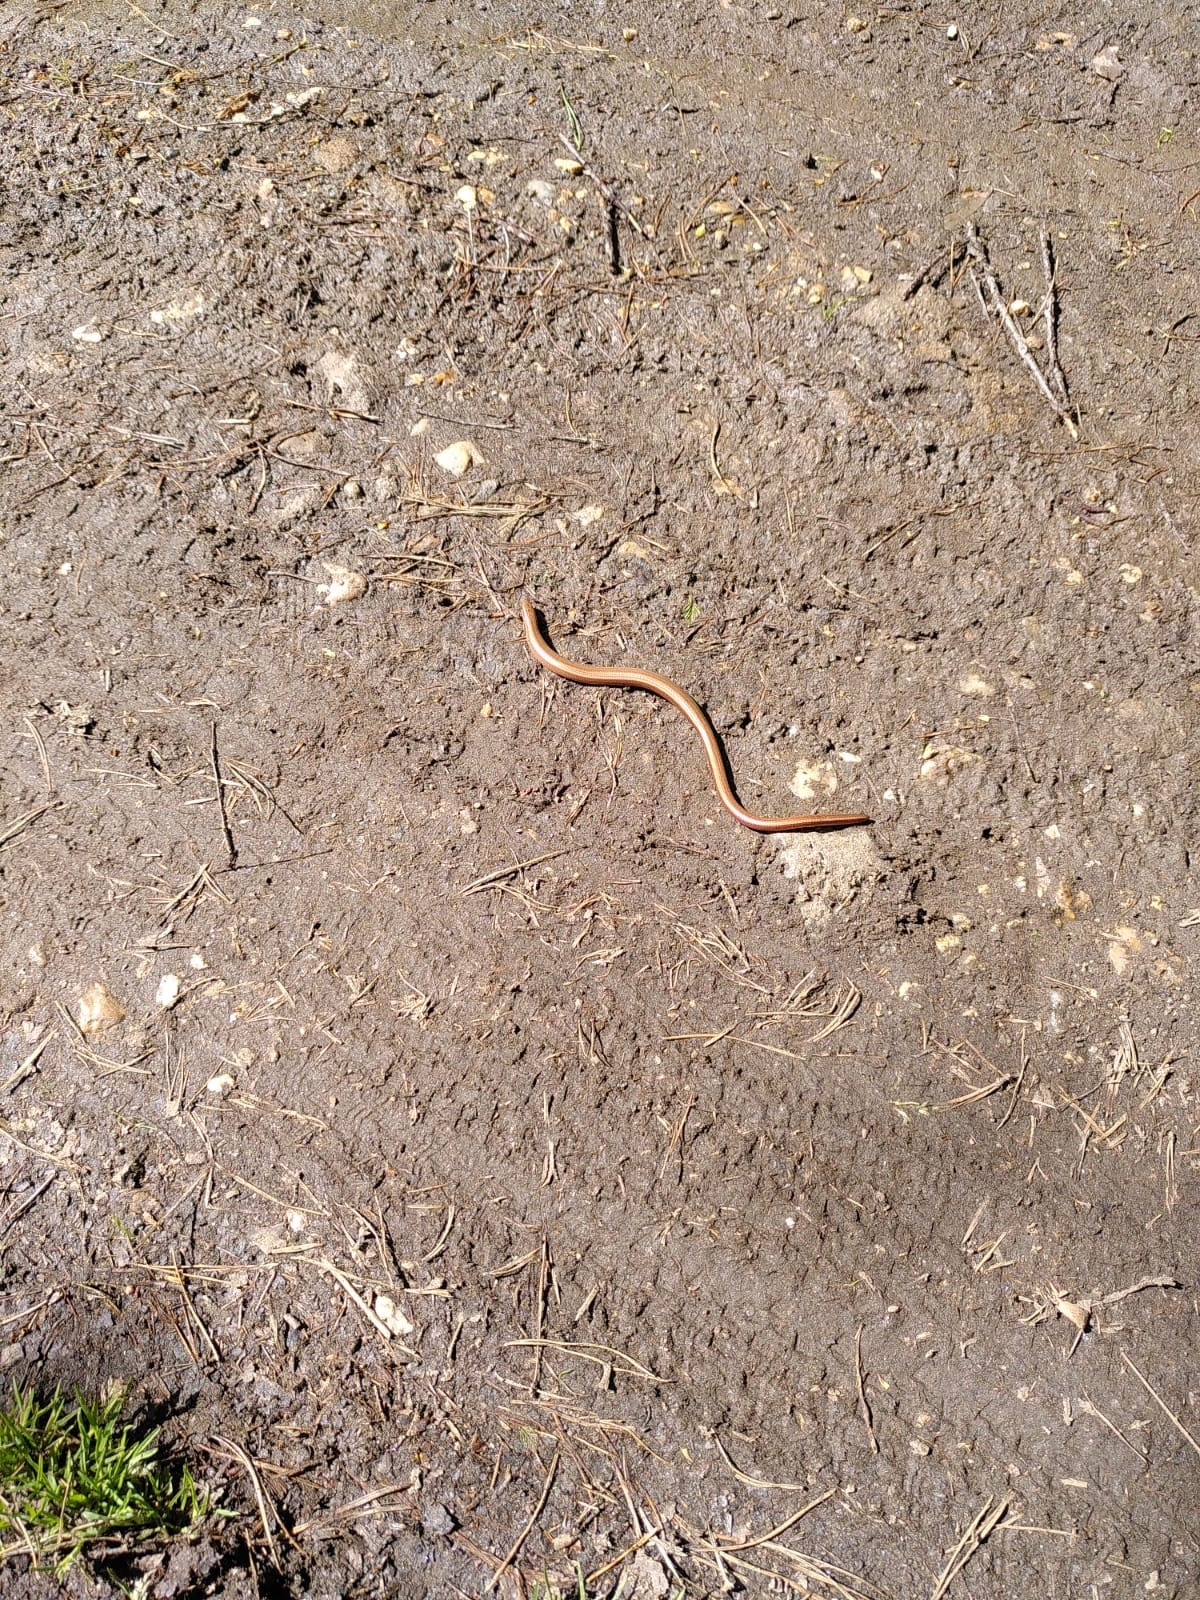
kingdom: Animalia
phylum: Chordata
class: Squamata
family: Anguidae
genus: Anguis
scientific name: Anguis fragilis
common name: Slow worm
